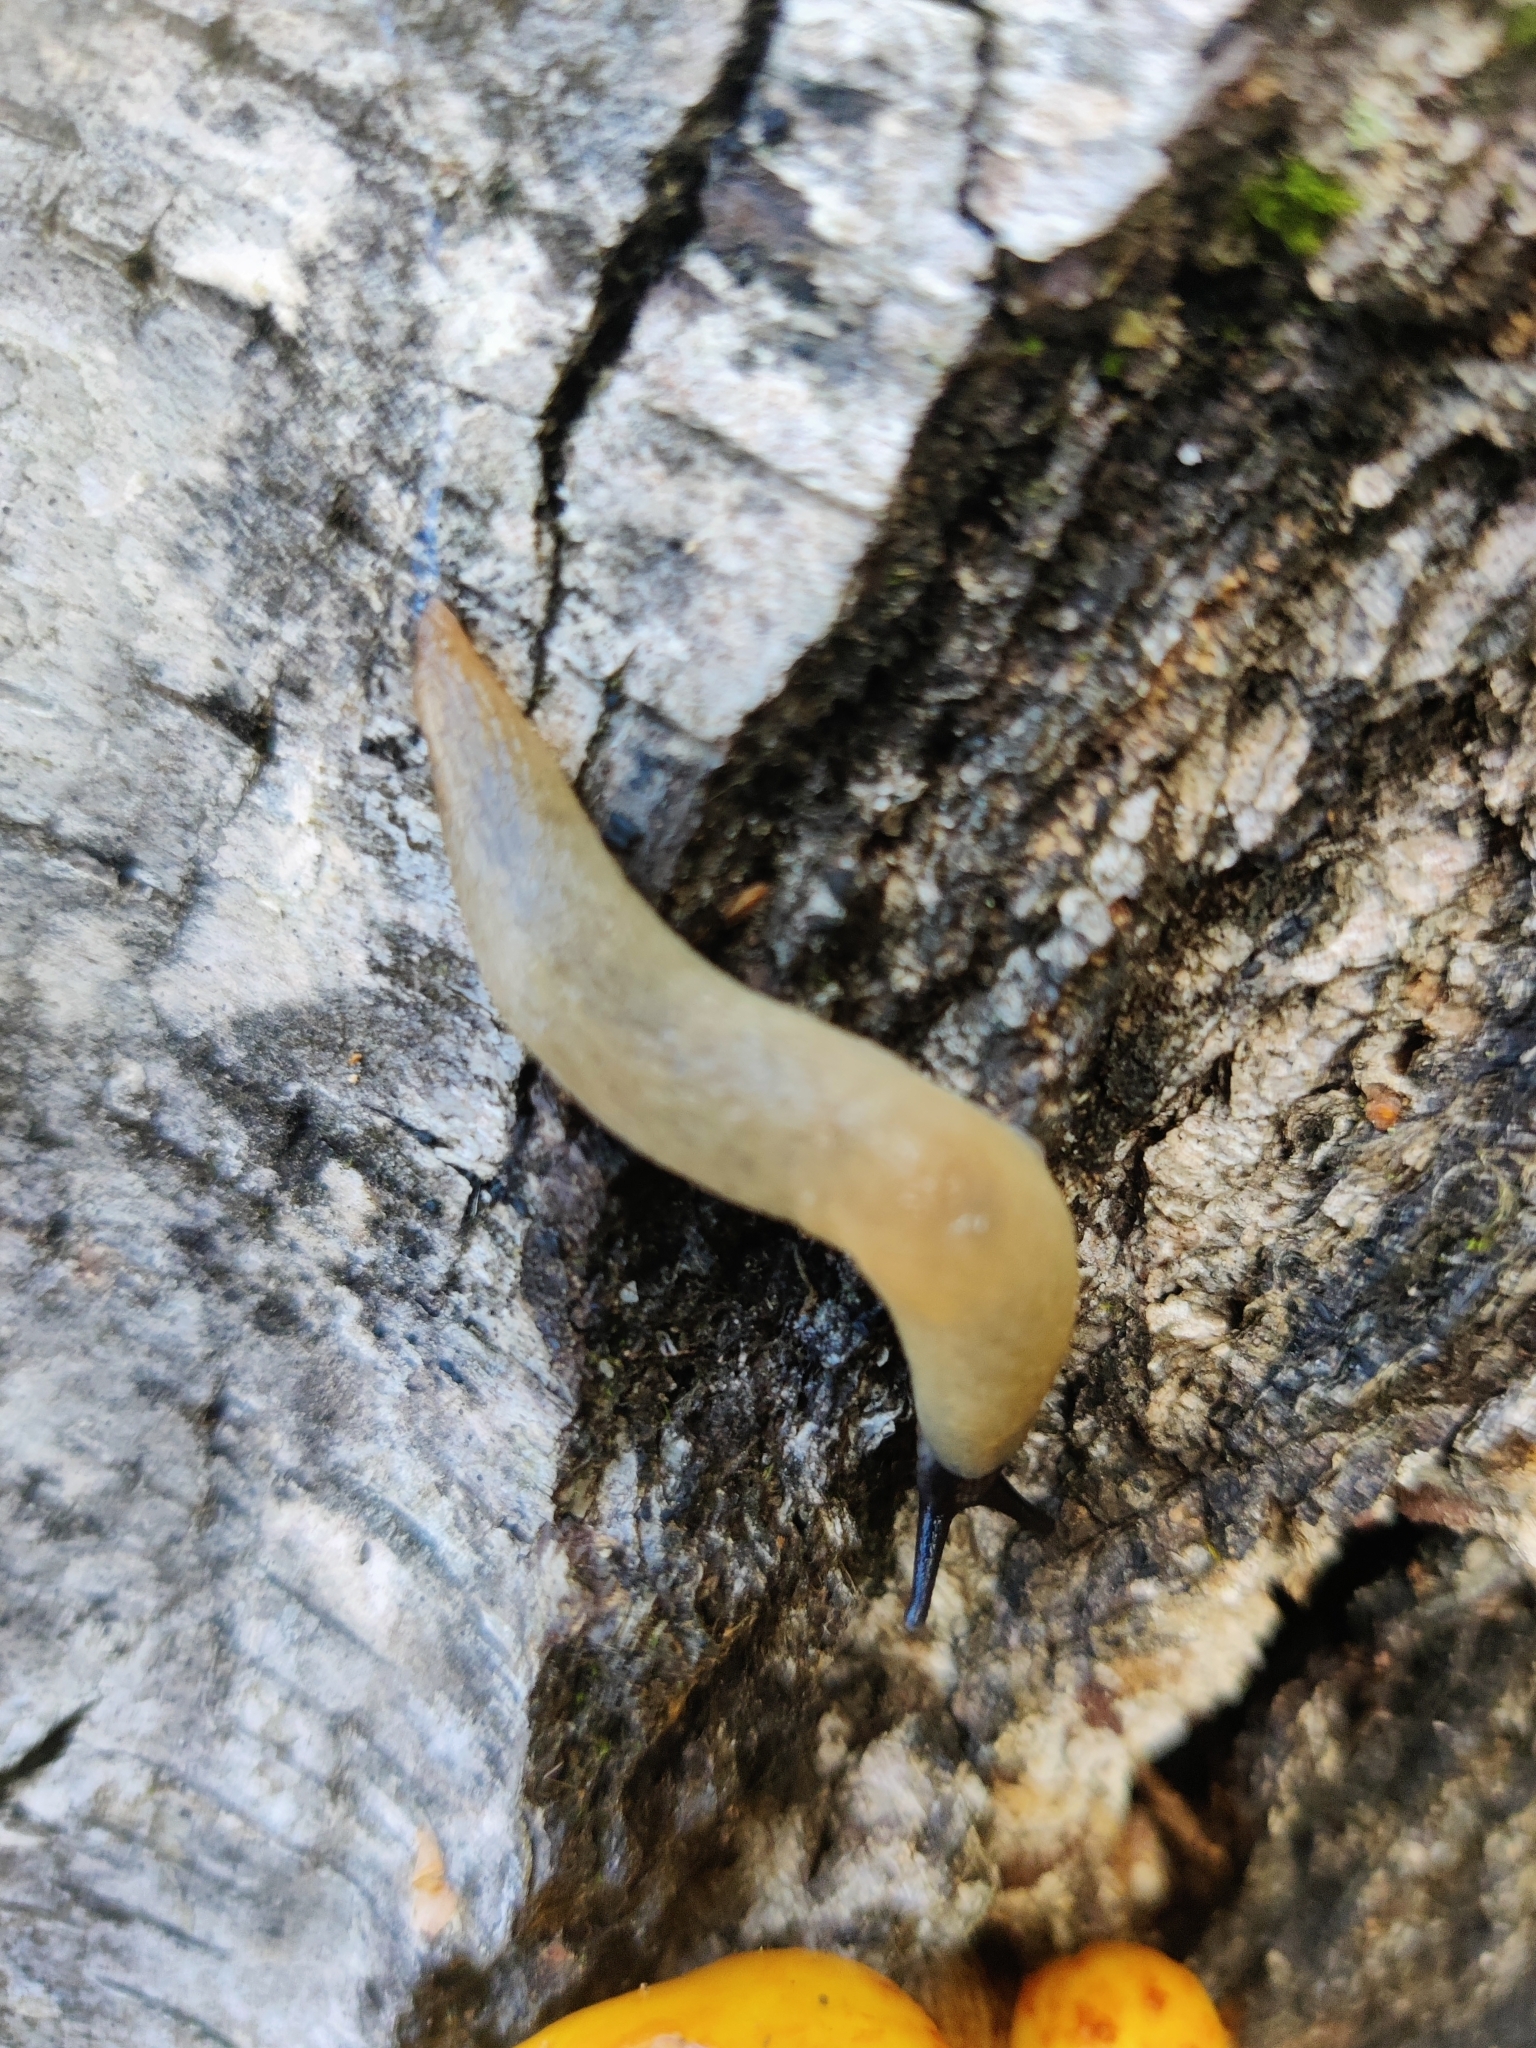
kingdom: Animalia
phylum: Mollusca
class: Gastropoda
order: Stylommatophora
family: Agriolimacidae
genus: Krynickillus
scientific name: Krynickillus melanocephalus
